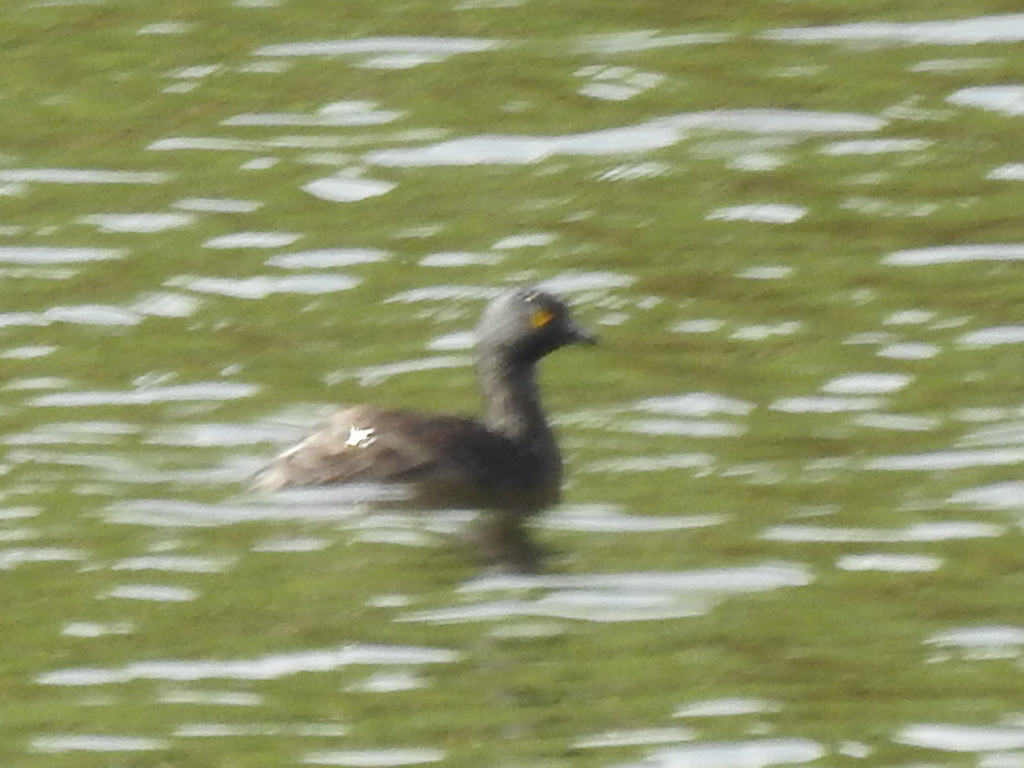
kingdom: Animalia
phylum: Chordata
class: Aves
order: Podicipediformes
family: Podicipedidae
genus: Tachybaptus
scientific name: Tachybaptus dominicus
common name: Least grebe
